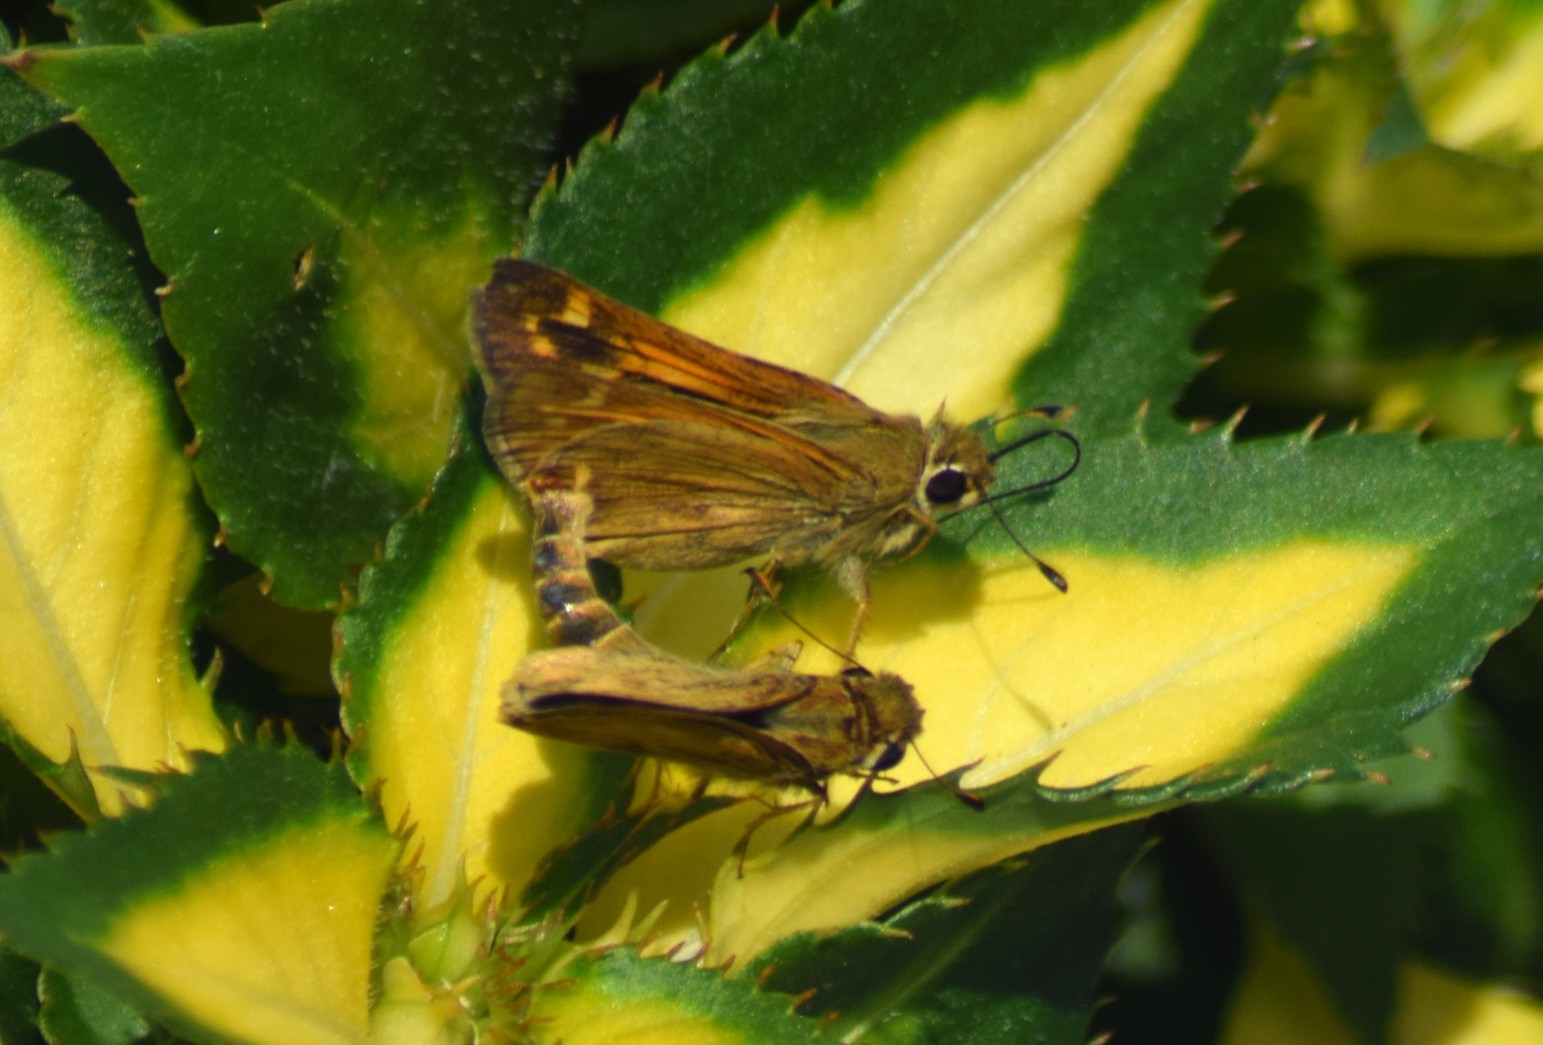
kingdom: Animalia
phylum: Arthropoda
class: Insecta
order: Lepidoptera
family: Hesperiidae
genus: Atalopedes
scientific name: Atalopedes
